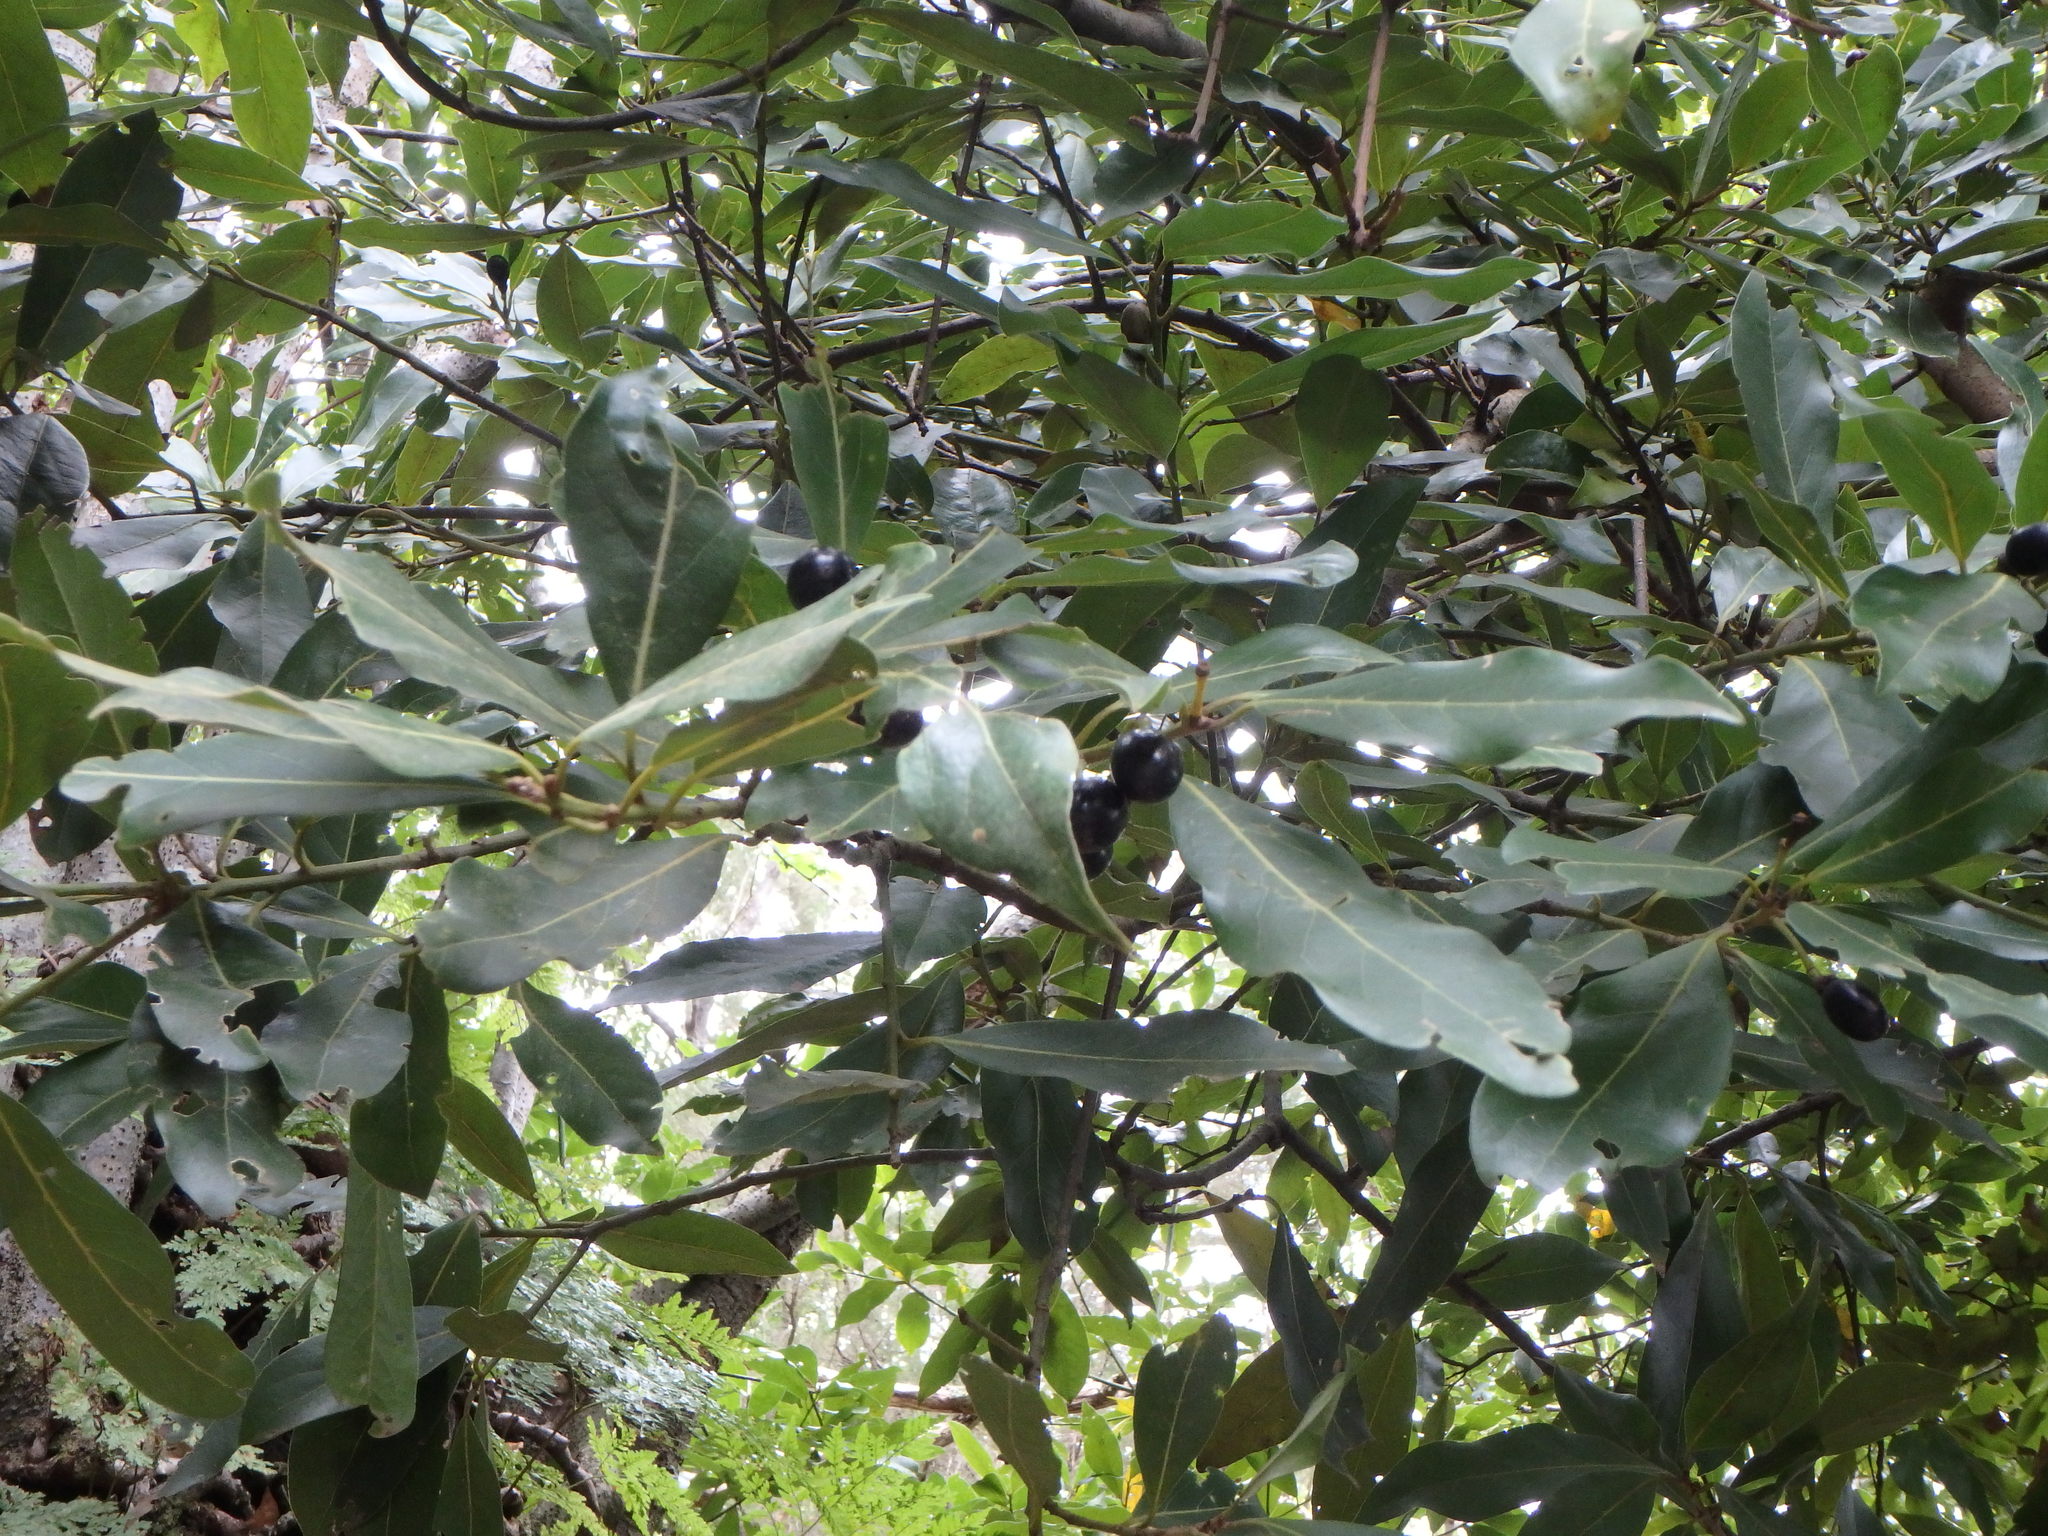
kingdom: Plantae
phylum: Tracheophyta
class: Magnoliopsida
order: Laurales
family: Lauraceae
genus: Laurus
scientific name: Laurus novocanariensis
